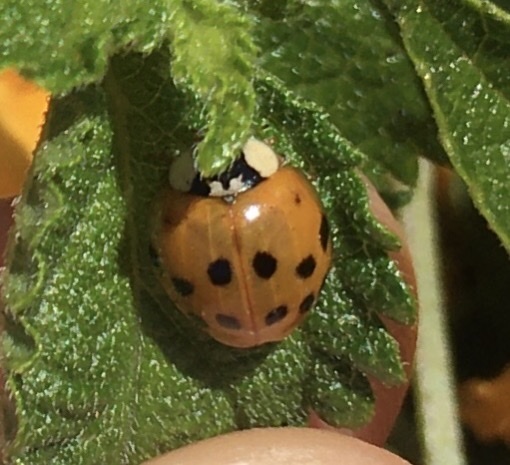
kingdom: Animalia
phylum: Arthropoda
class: Insecta
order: Coleoptera
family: Coccinellidae
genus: Harmonia
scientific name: Harmonia axyridis
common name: Harlequin ladybird
